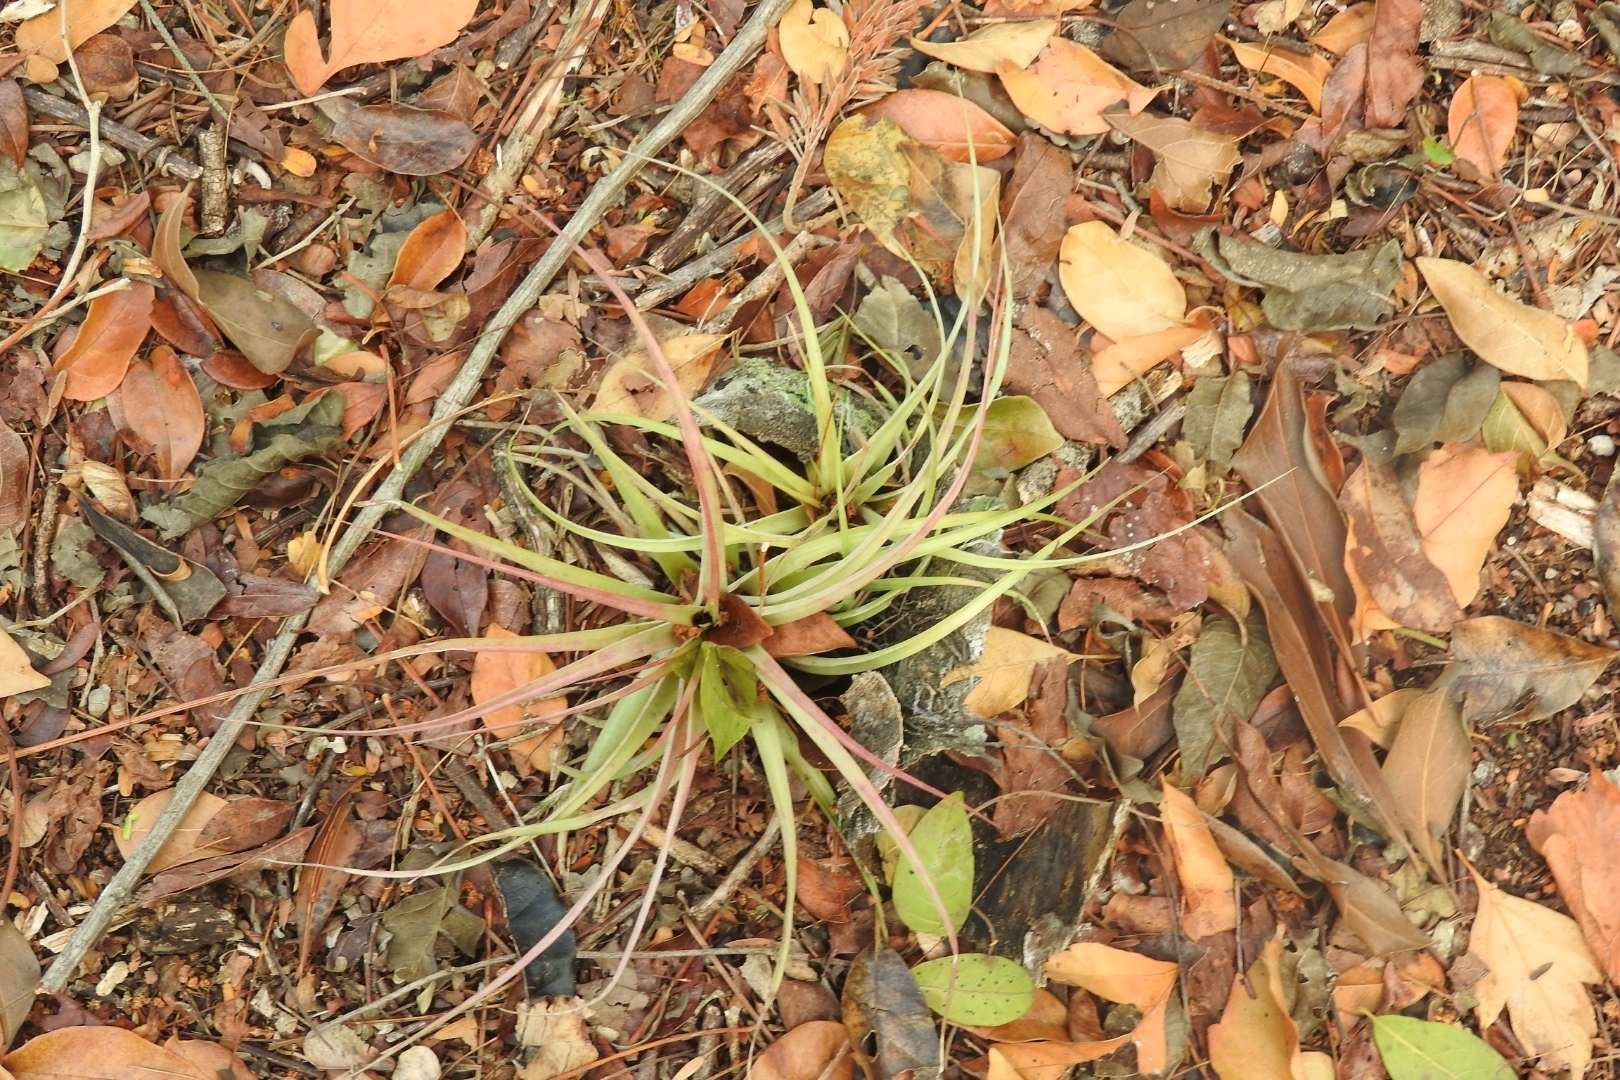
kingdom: Plantae
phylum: Tracheophyta
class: Liliopsida
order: Poales
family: Bromeliaceae
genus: Tillandsia
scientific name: Tillandsia fasciculata
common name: Giant airplant
